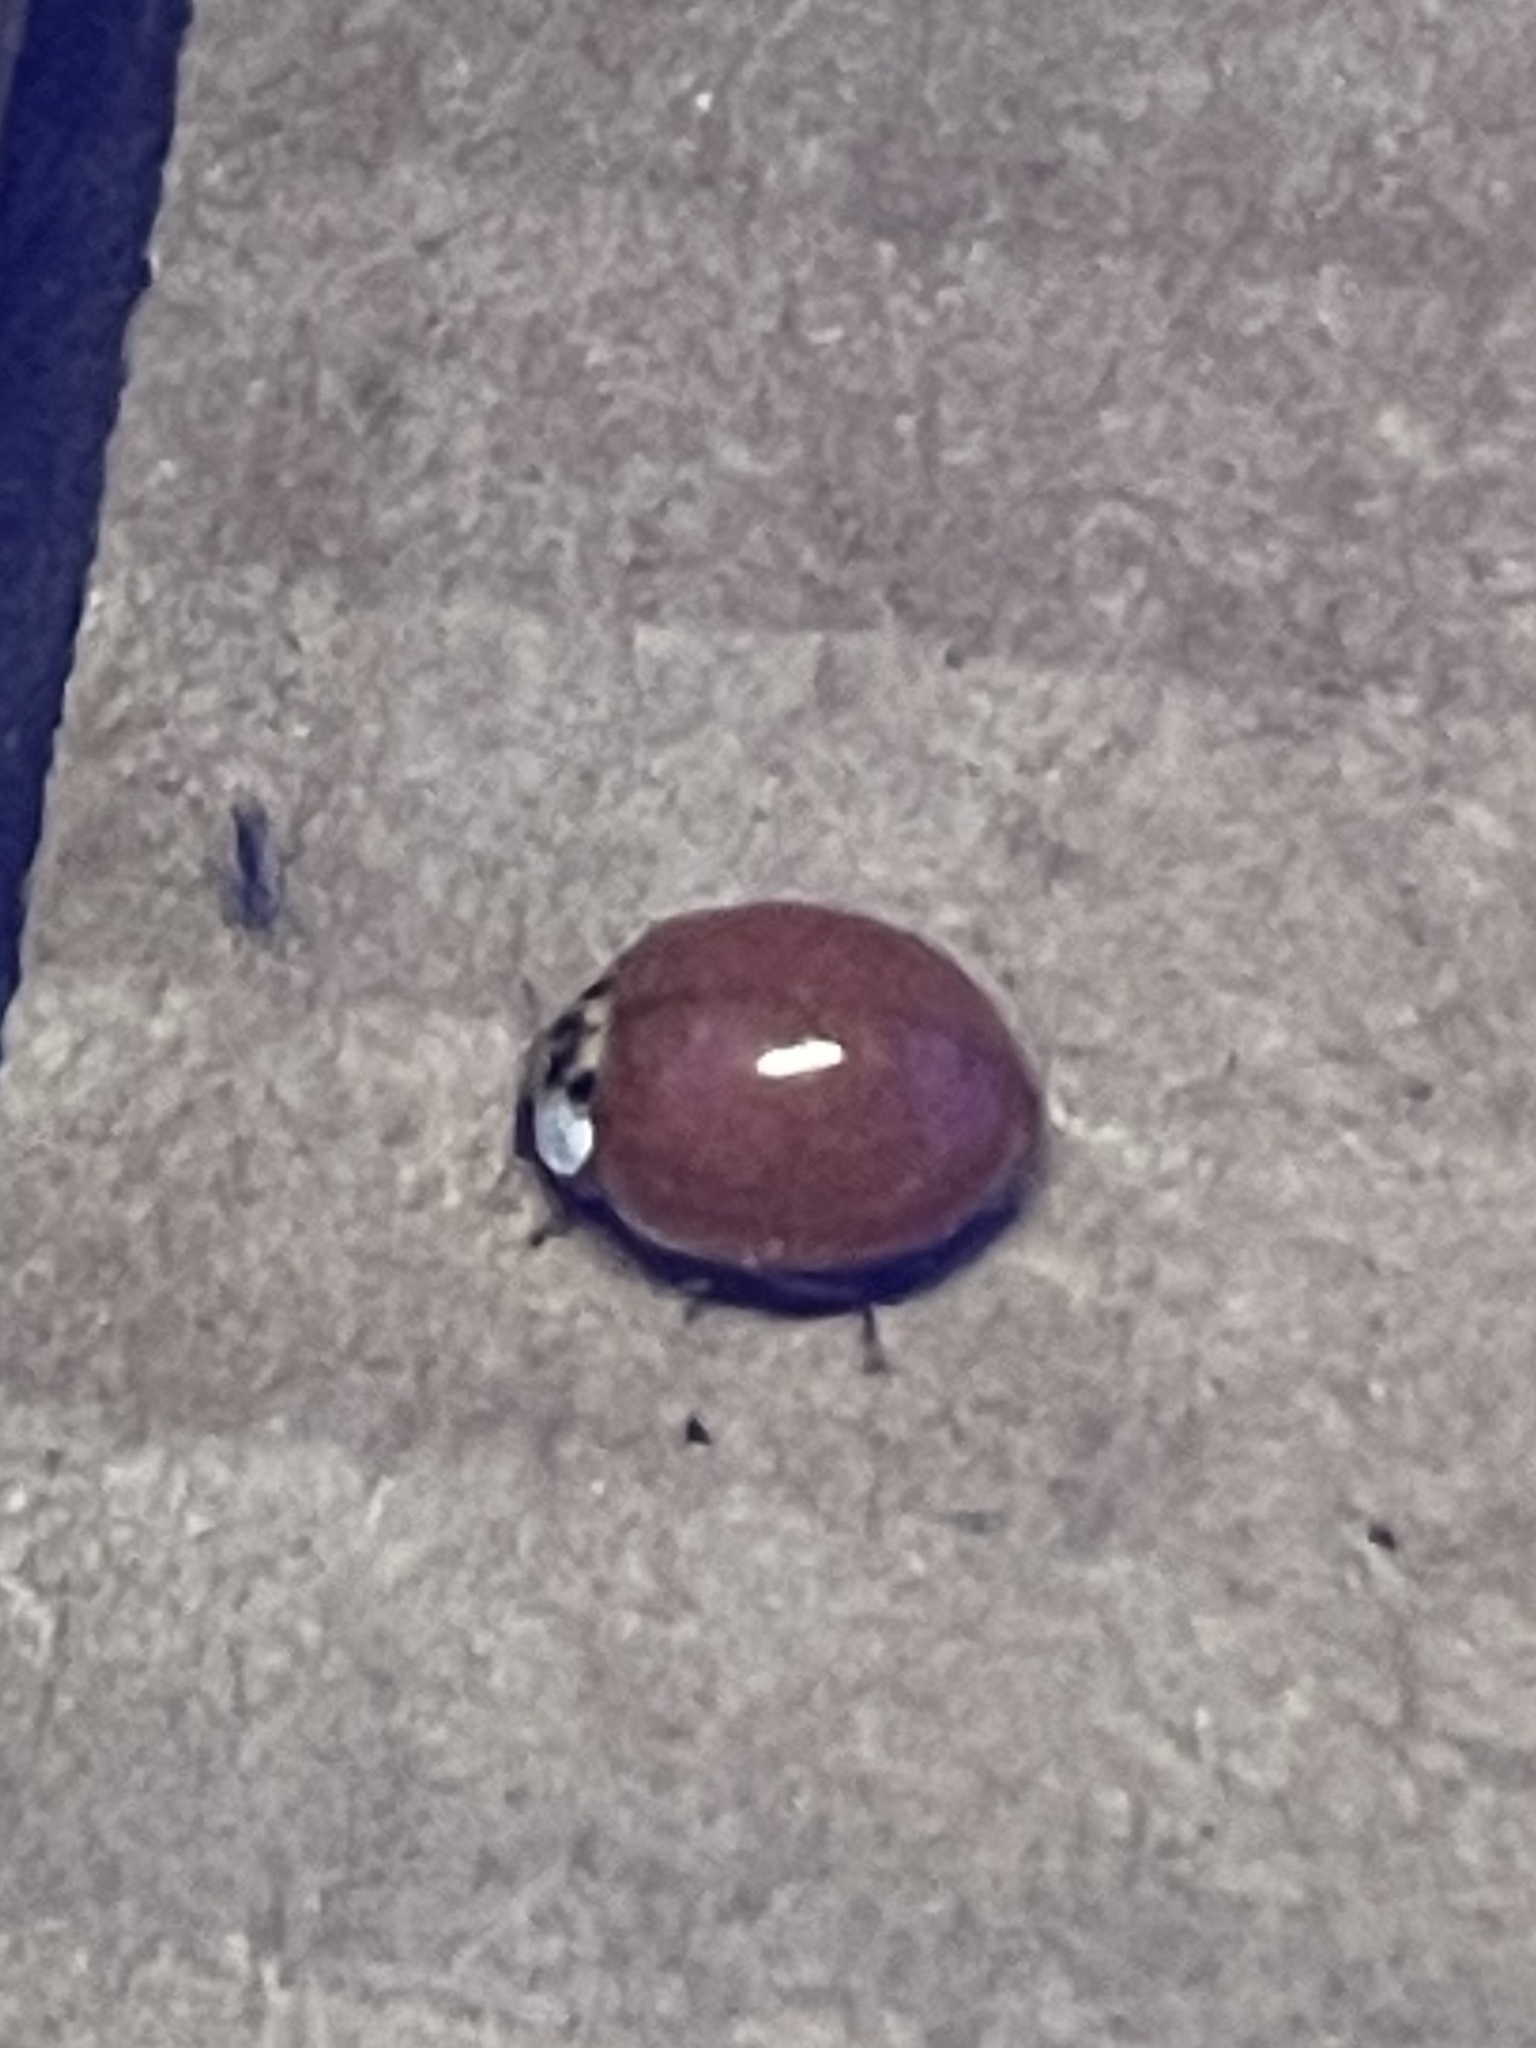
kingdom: Animalia
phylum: Arthropoda
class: Insecta
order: Coleoptera
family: Coccinellidae
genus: Harmonia
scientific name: Harmonia axyridis
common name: Harlequin ladybird
